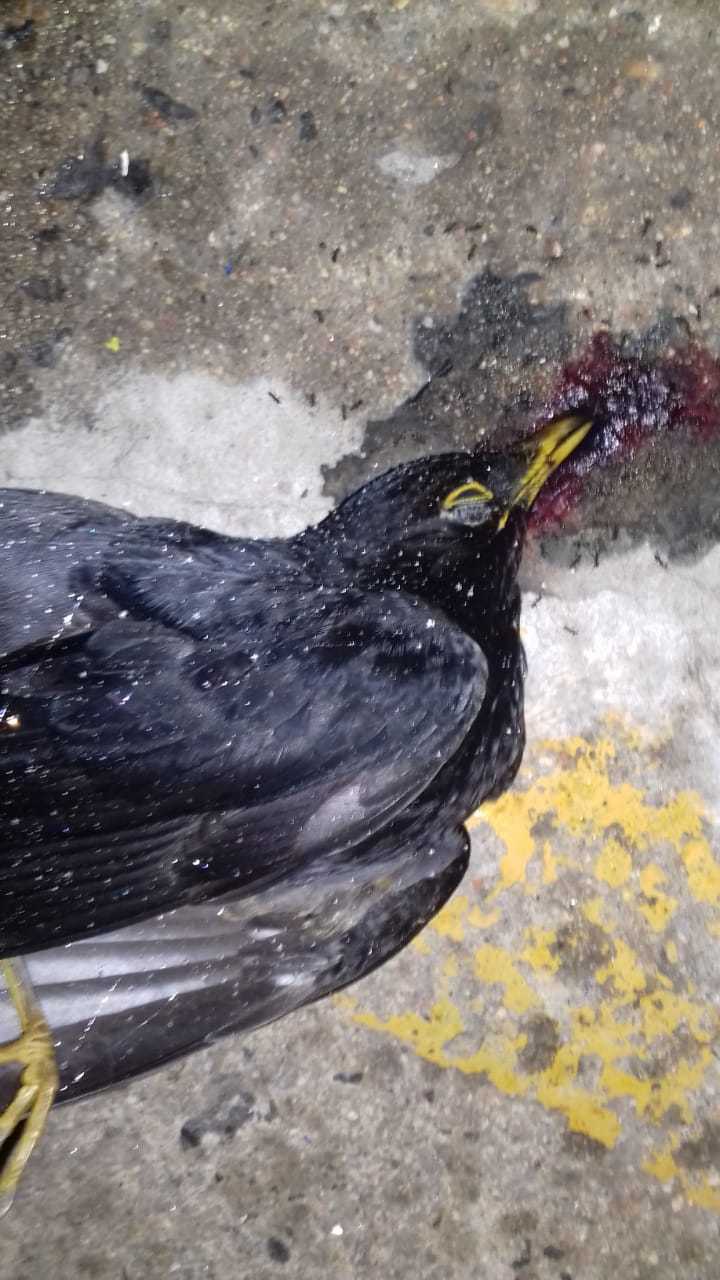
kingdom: Animalia
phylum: Chordata
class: Aves
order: Passeriformes
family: Turdidae
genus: Turdus
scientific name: Turdus flavipes
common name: Yellow-legged thrush
